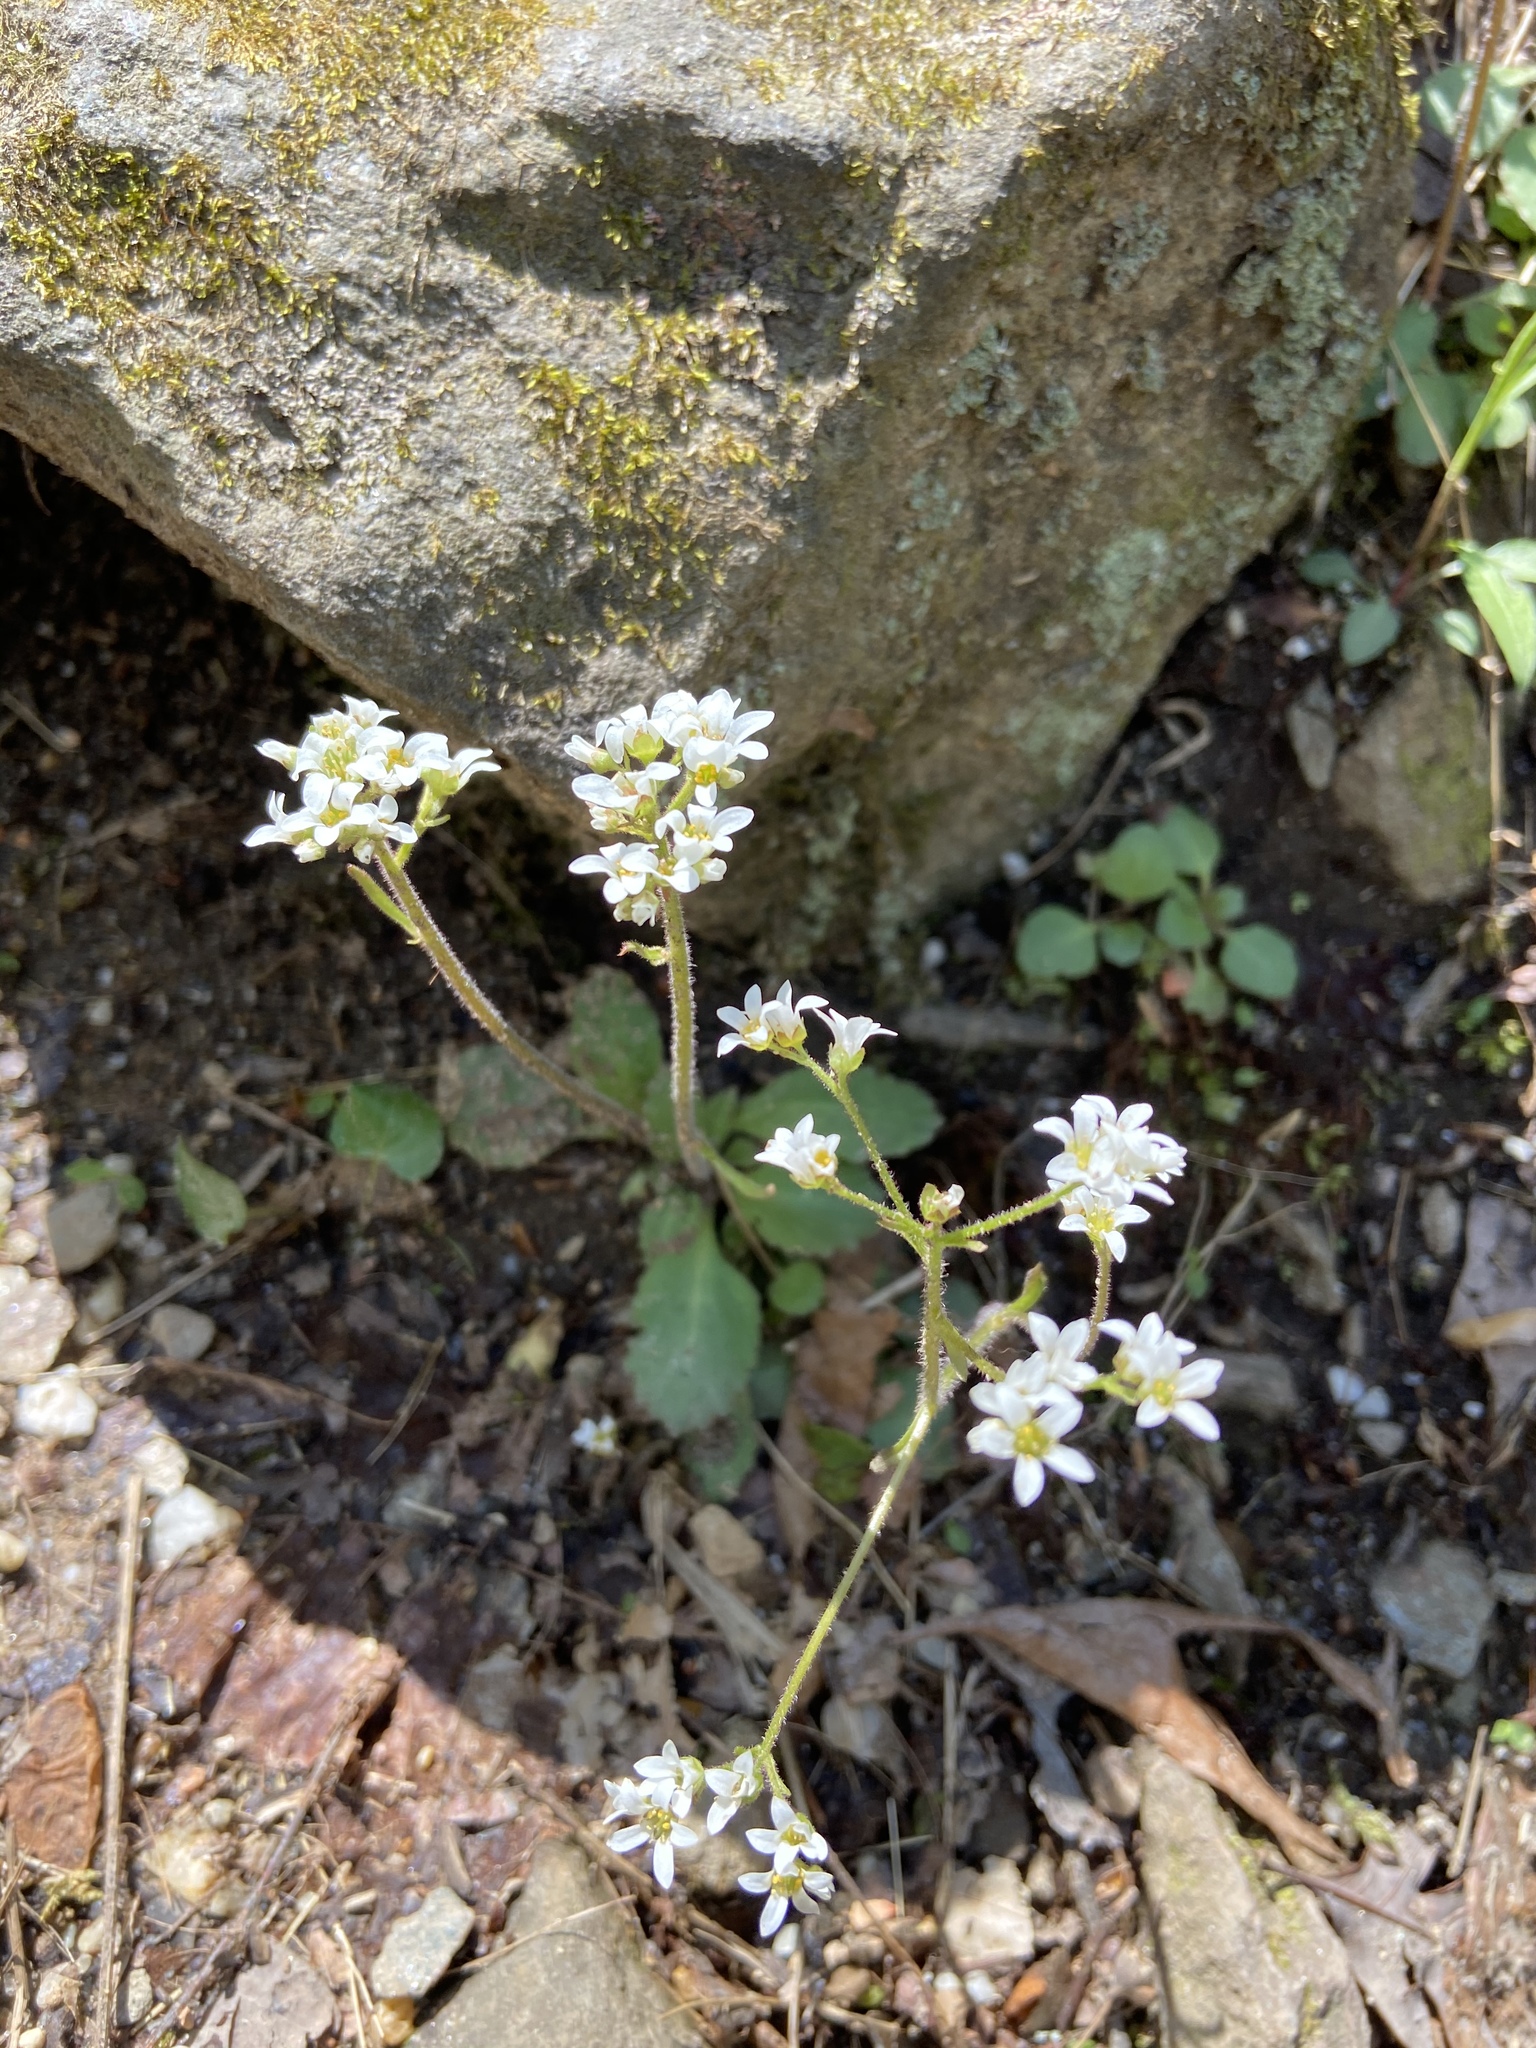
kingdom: Plantae
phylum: Tracheophyta
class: Magnoliopsida
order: Saxifragales
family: Saxifragaceae
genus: Micranthes
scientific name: Micranthes virginiensis
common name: Early saxifrage
